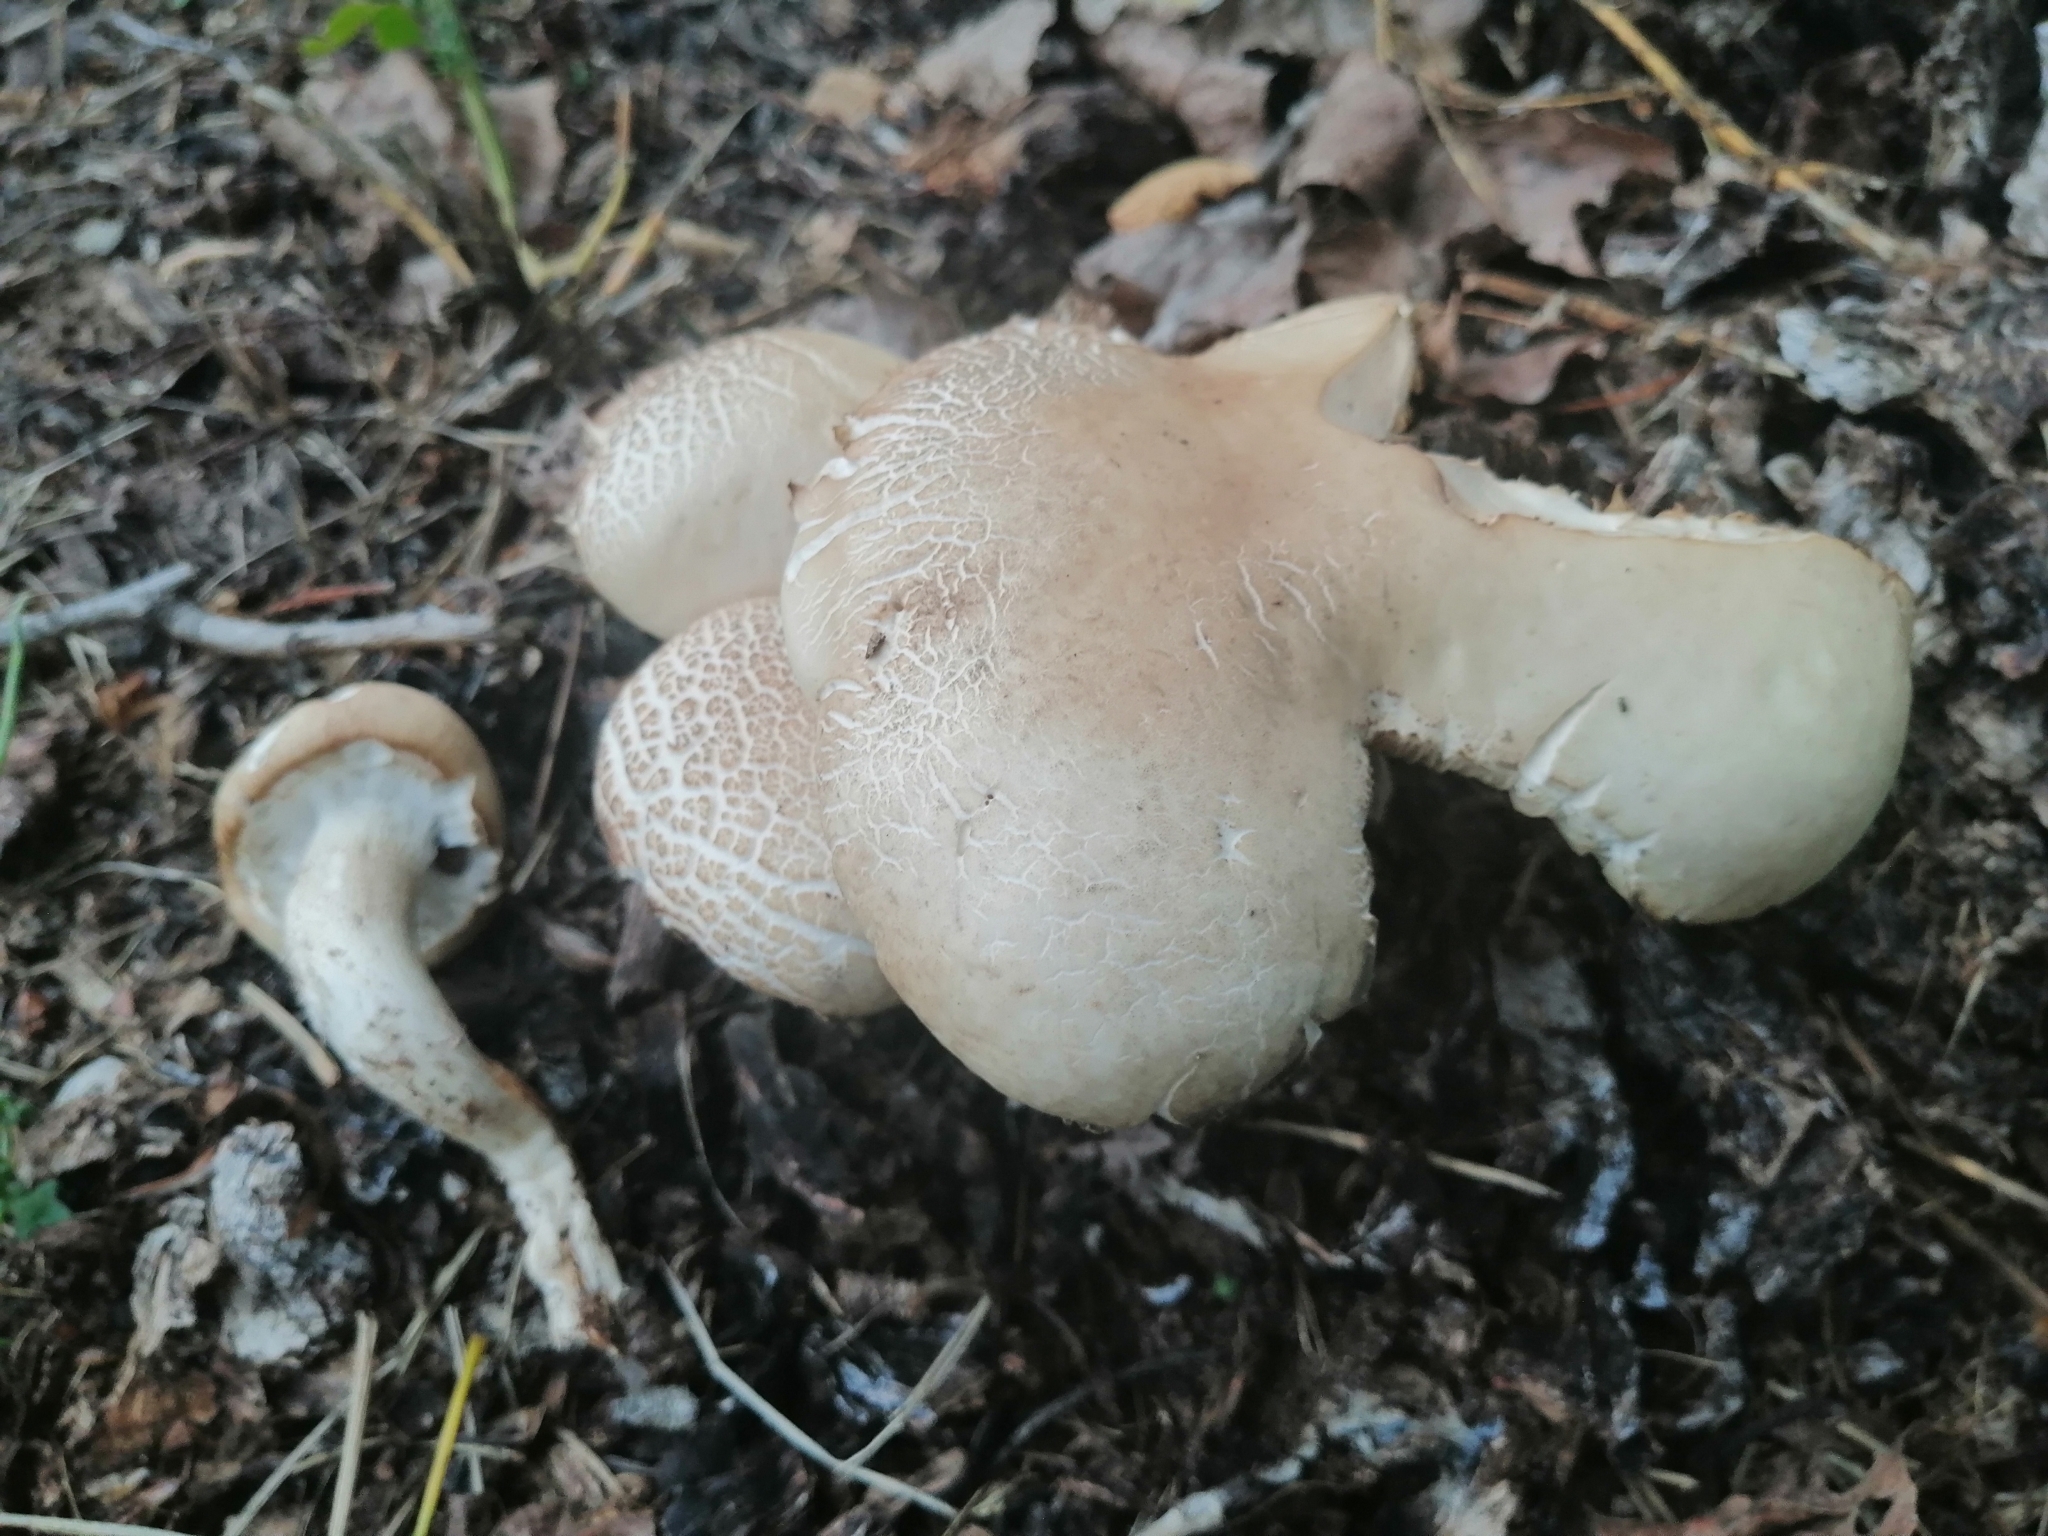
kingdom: Fungi
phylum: Basidiomycota
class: Agaricomycetes
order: Agaricales
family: Tubariaceae
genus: Cyclocybe
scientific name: Cyclocybe cylindracea
